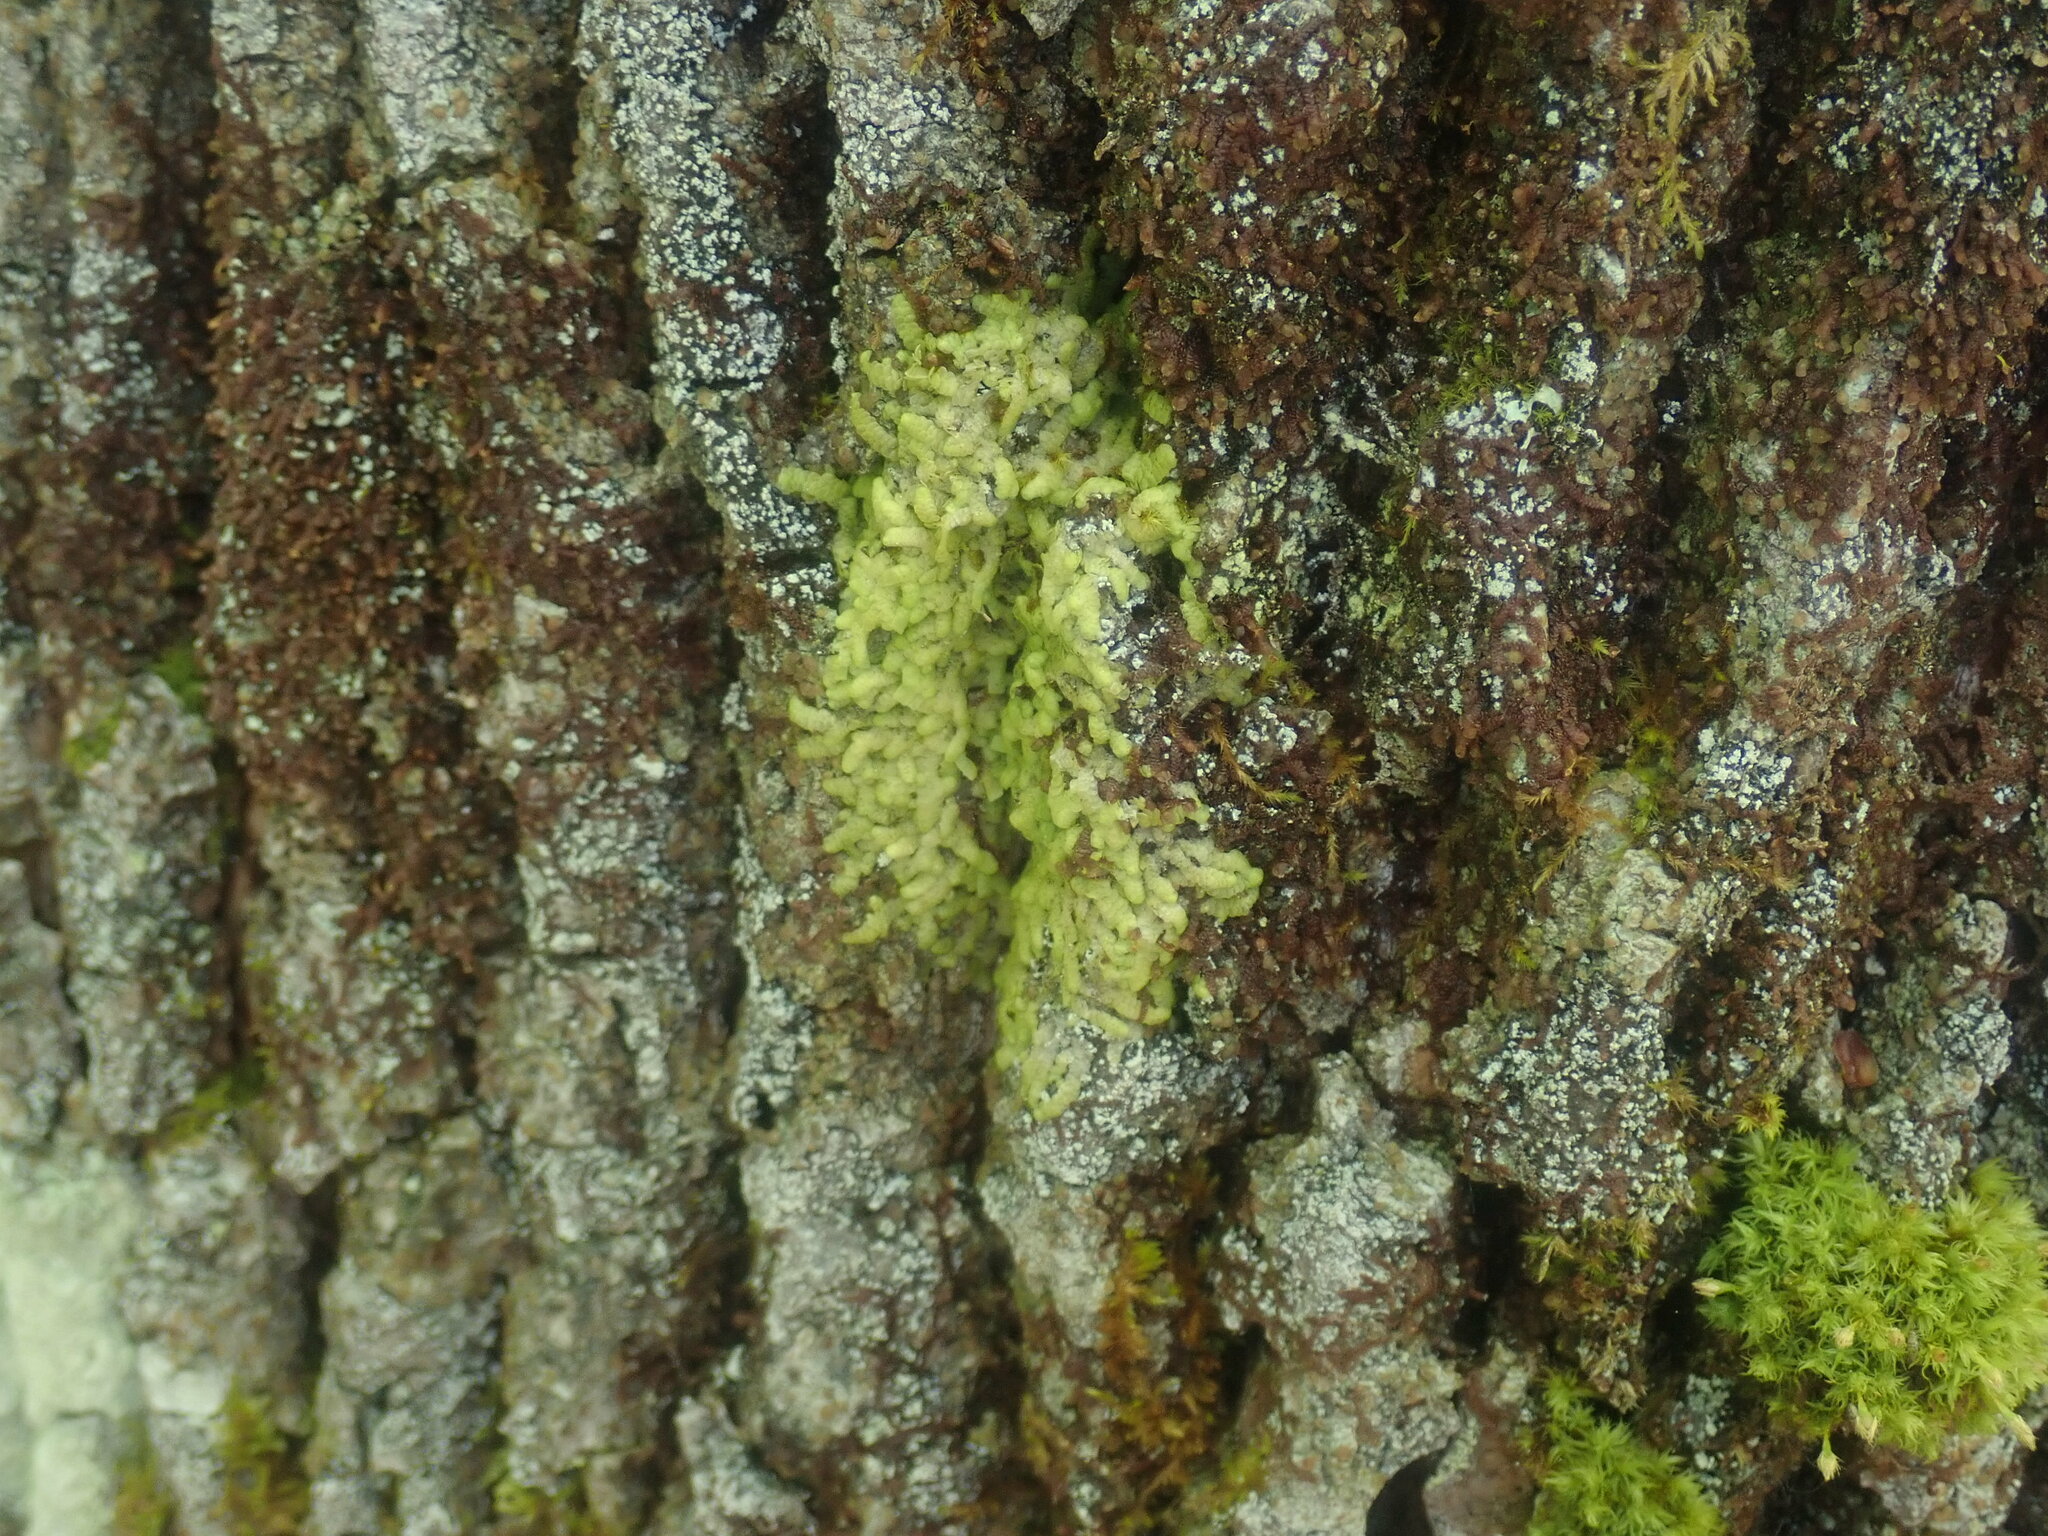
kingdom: Plantae
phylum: Marchantiophyta
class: Jungermanniopsida
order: Porellales
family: Radulaceae
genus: Radula
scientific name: Radula complanata
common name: Flat-leaved scalewort
